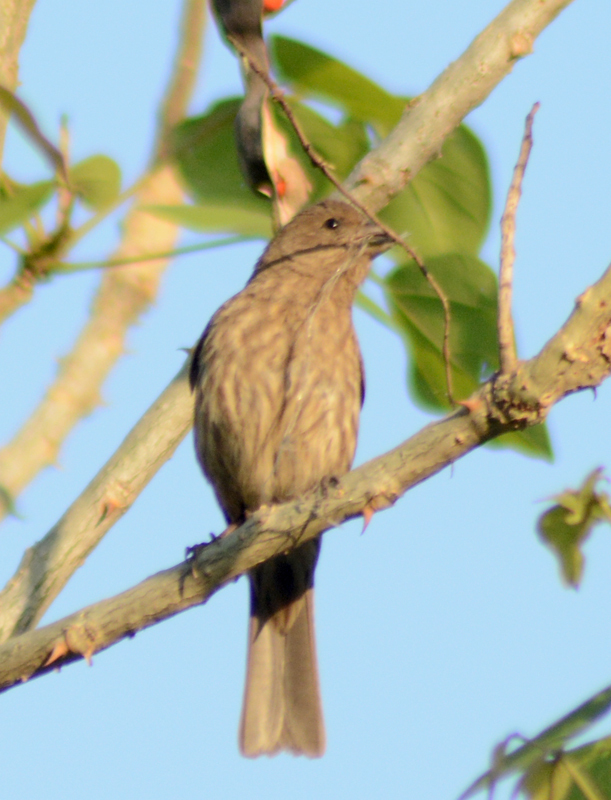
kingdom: Animalia
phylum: Chordata
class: Aves
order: Passeriformes
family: Fringillidae
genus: Haemorhous
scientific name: Haemorhous mexicanus
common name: House finch
